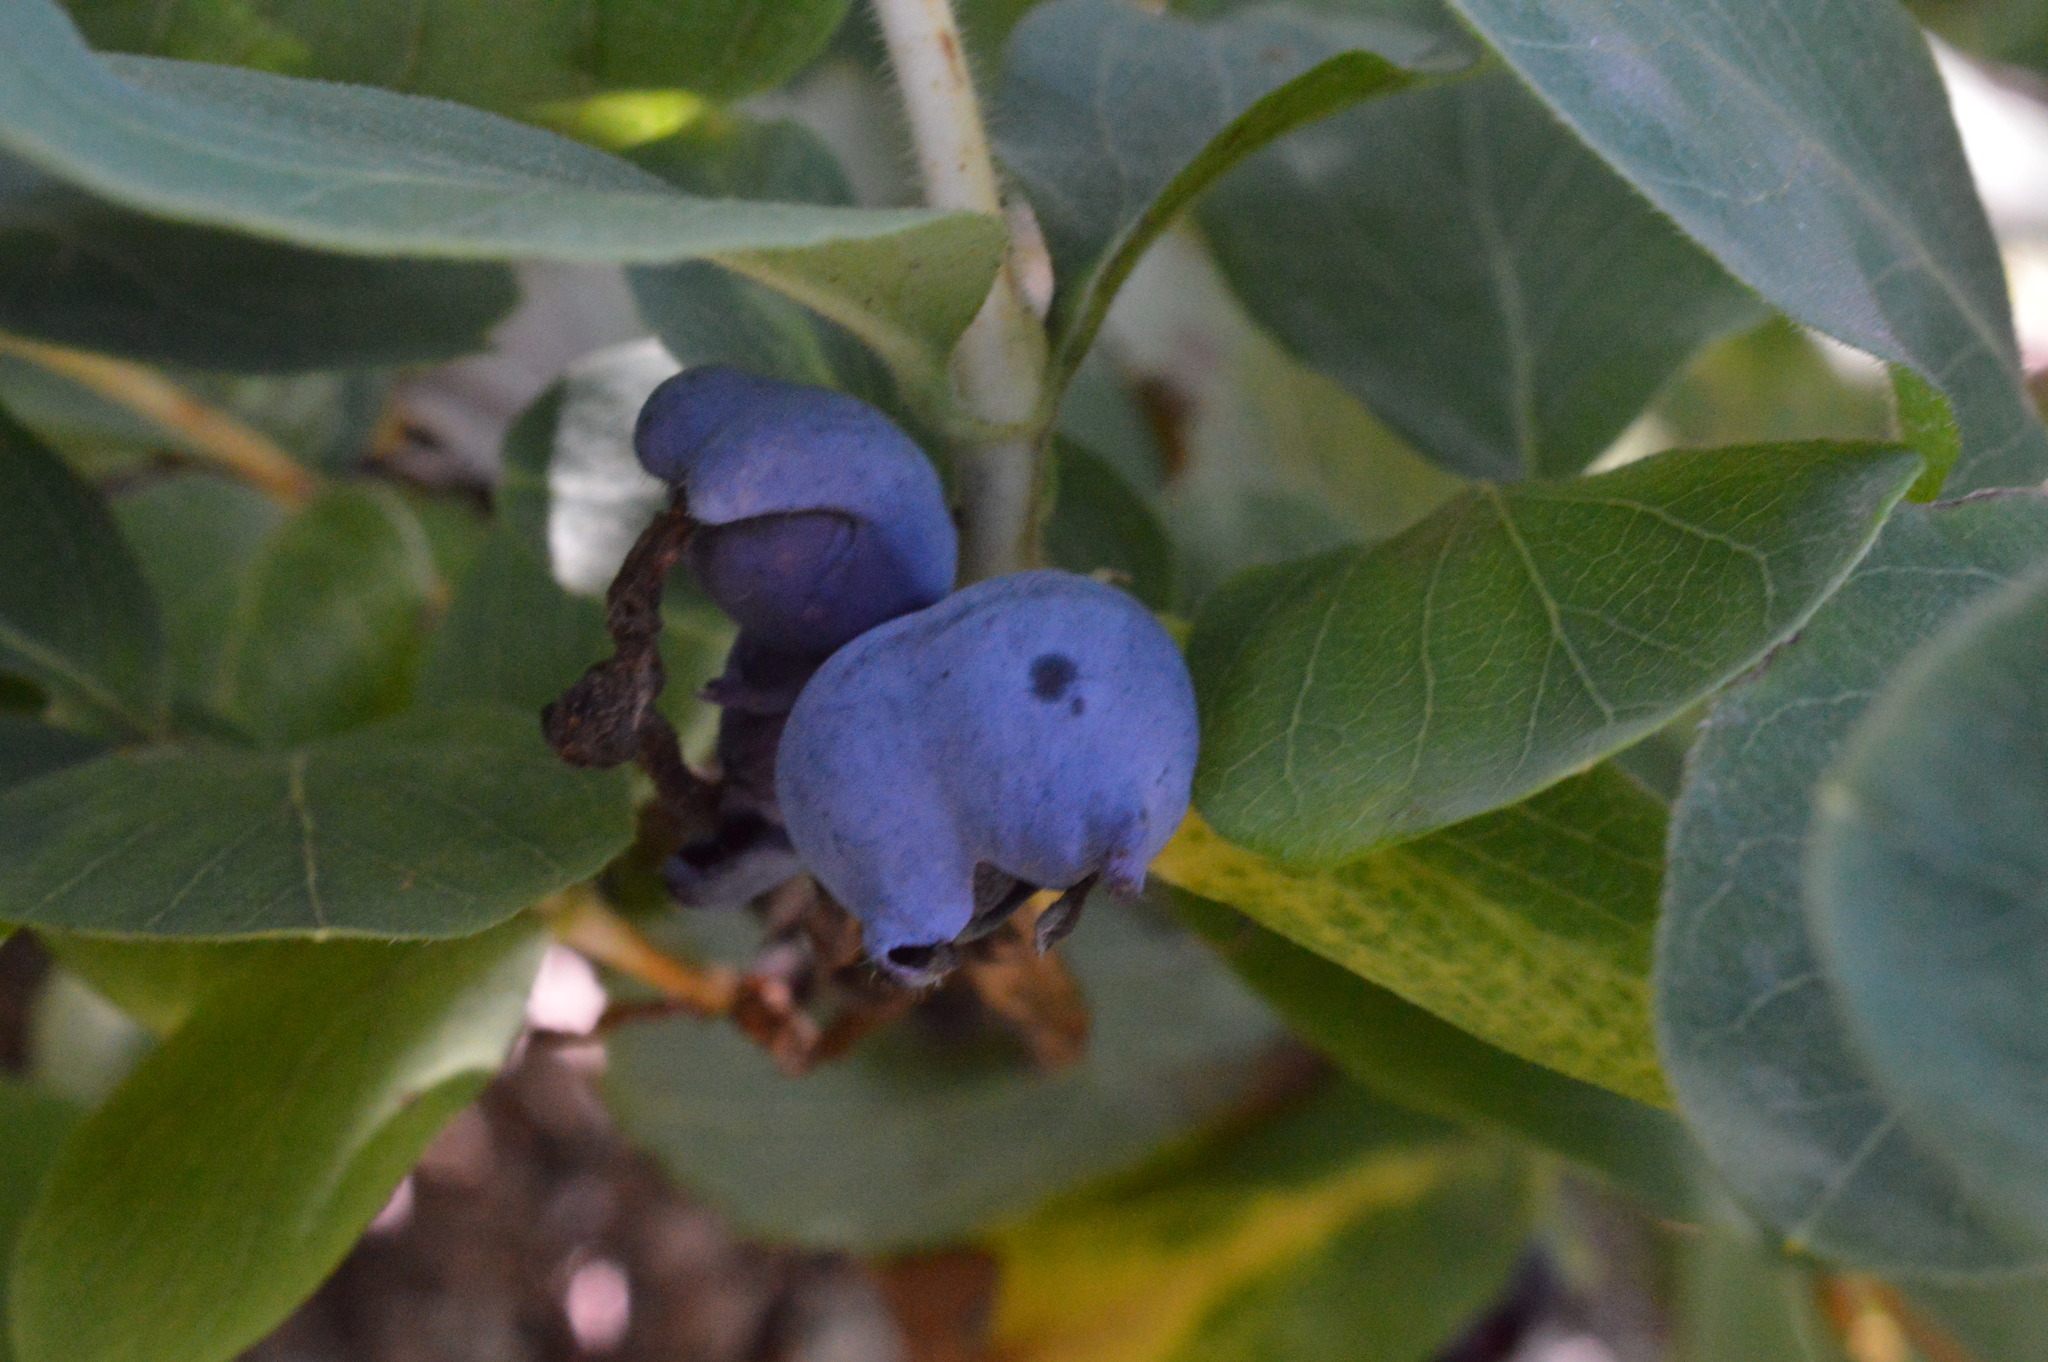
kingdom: Plantae
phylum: Tracheophyta
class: Magnoliopsida
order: Dipsacales
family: Caprifoliaceae
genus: Lonicera
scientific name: Lonicera caerulea
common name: Blue honeysuckle
